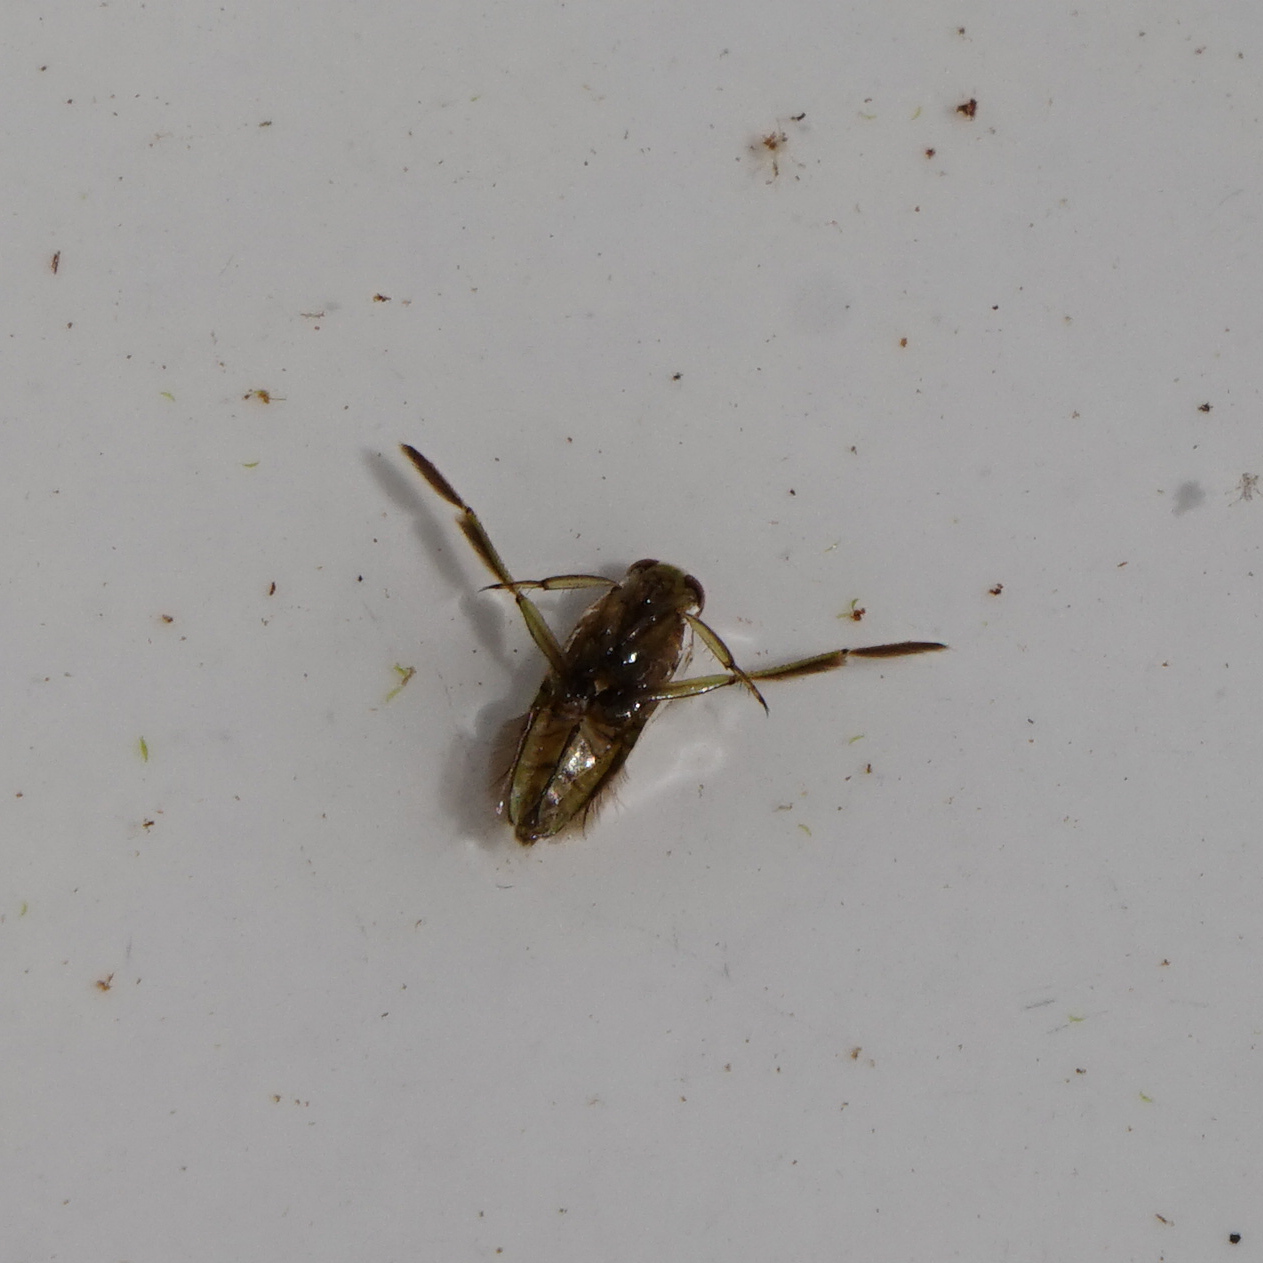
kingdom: Animalia
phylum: Arthropoda
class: Insecta
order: Hemiptera
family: Notonectidae
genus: Notonecta
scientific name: Notonecta
